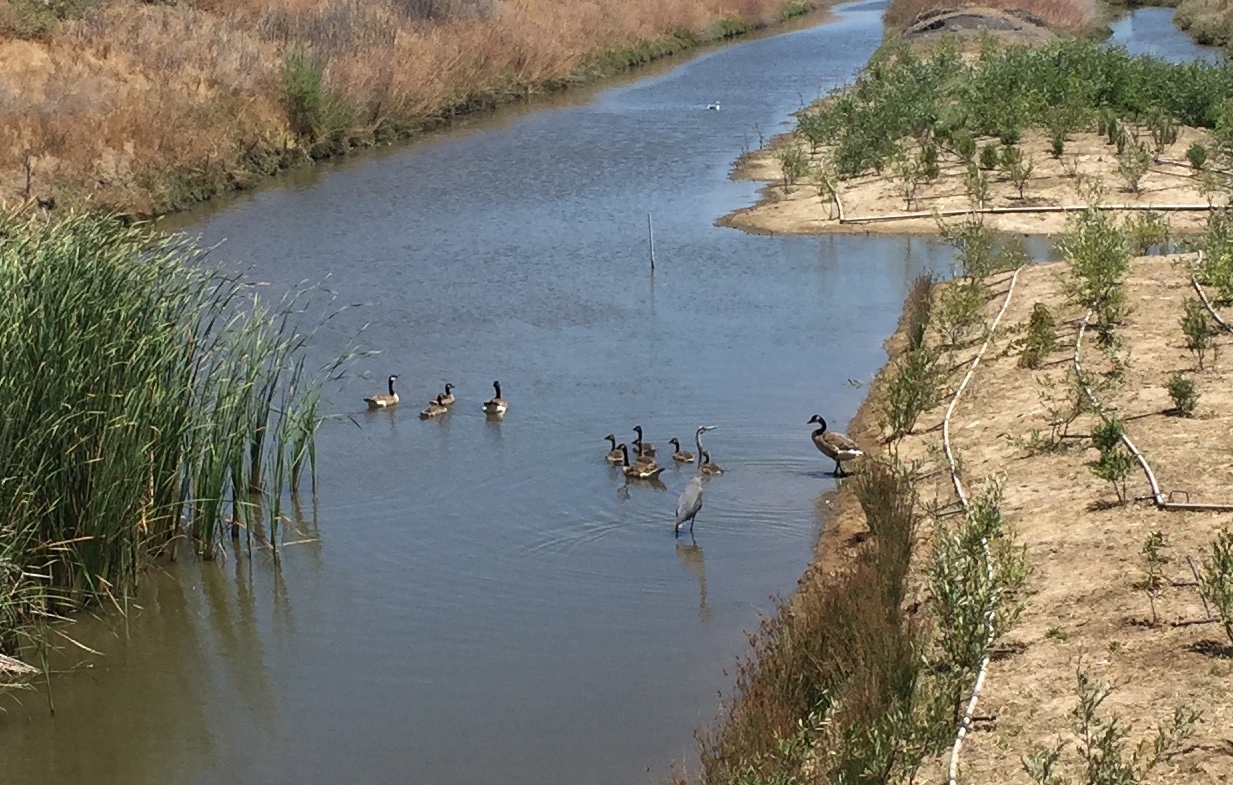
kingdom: Animalia
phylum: Chordata
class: Aves
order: Anseriformes
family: Anatidae
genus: Branta
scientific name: Branta canadensis
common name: Canada goose
